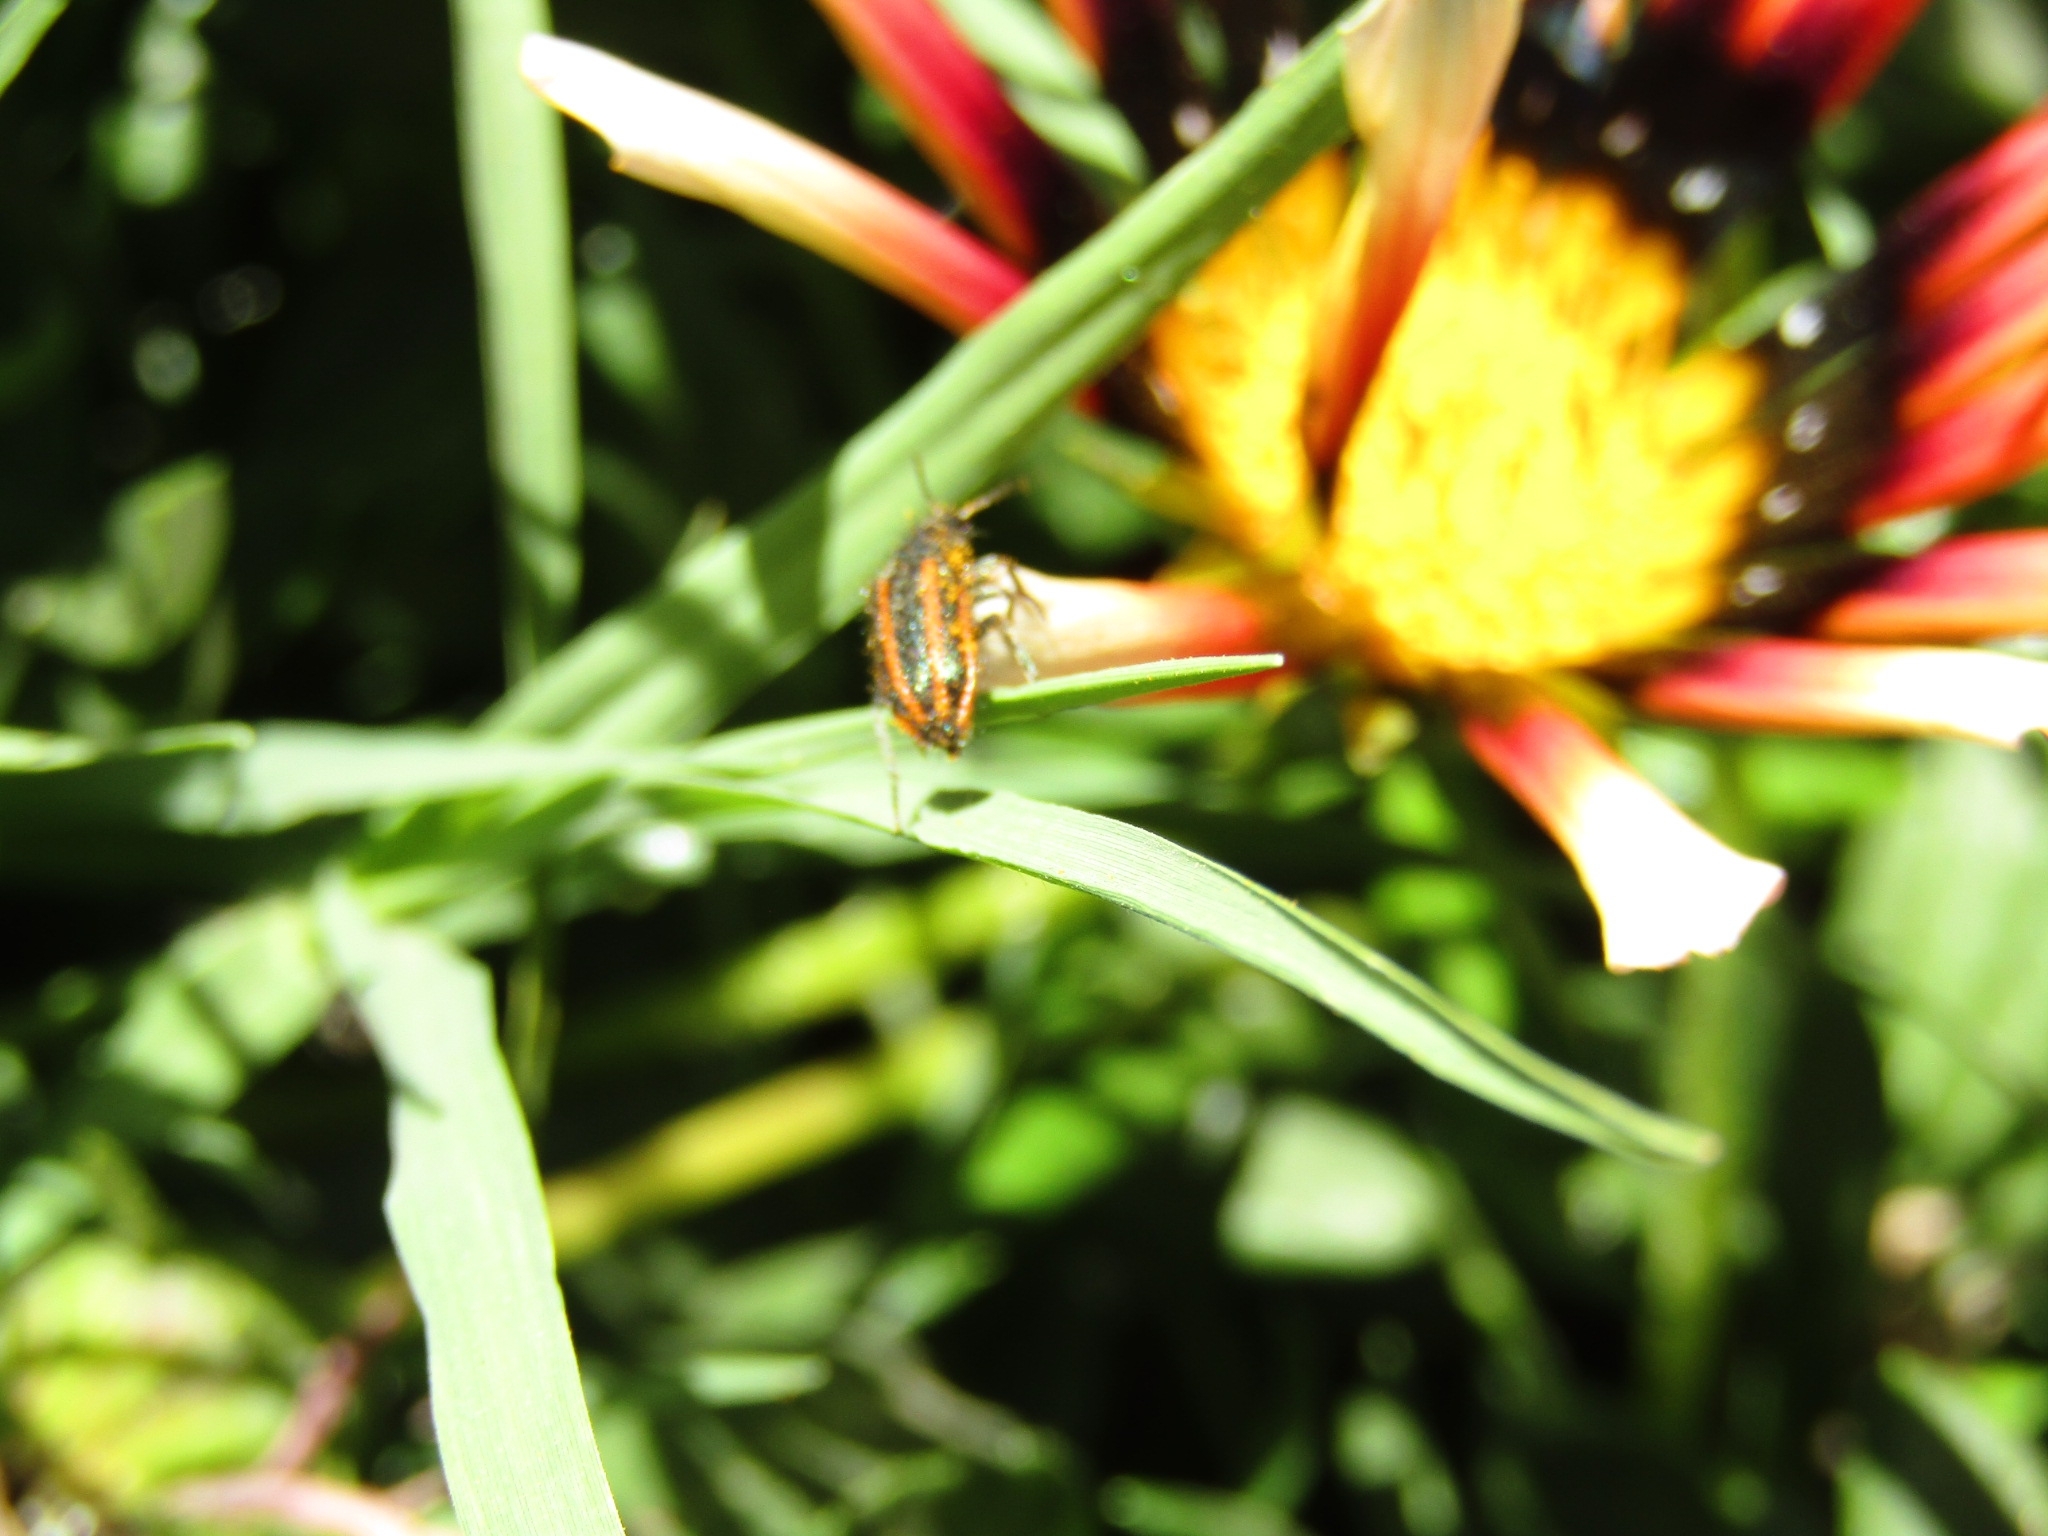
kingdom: Animalia
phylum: Arthropoda
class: Insecta
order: Coleoptera
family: Melyridae
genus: Astylus
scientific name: Astylus
